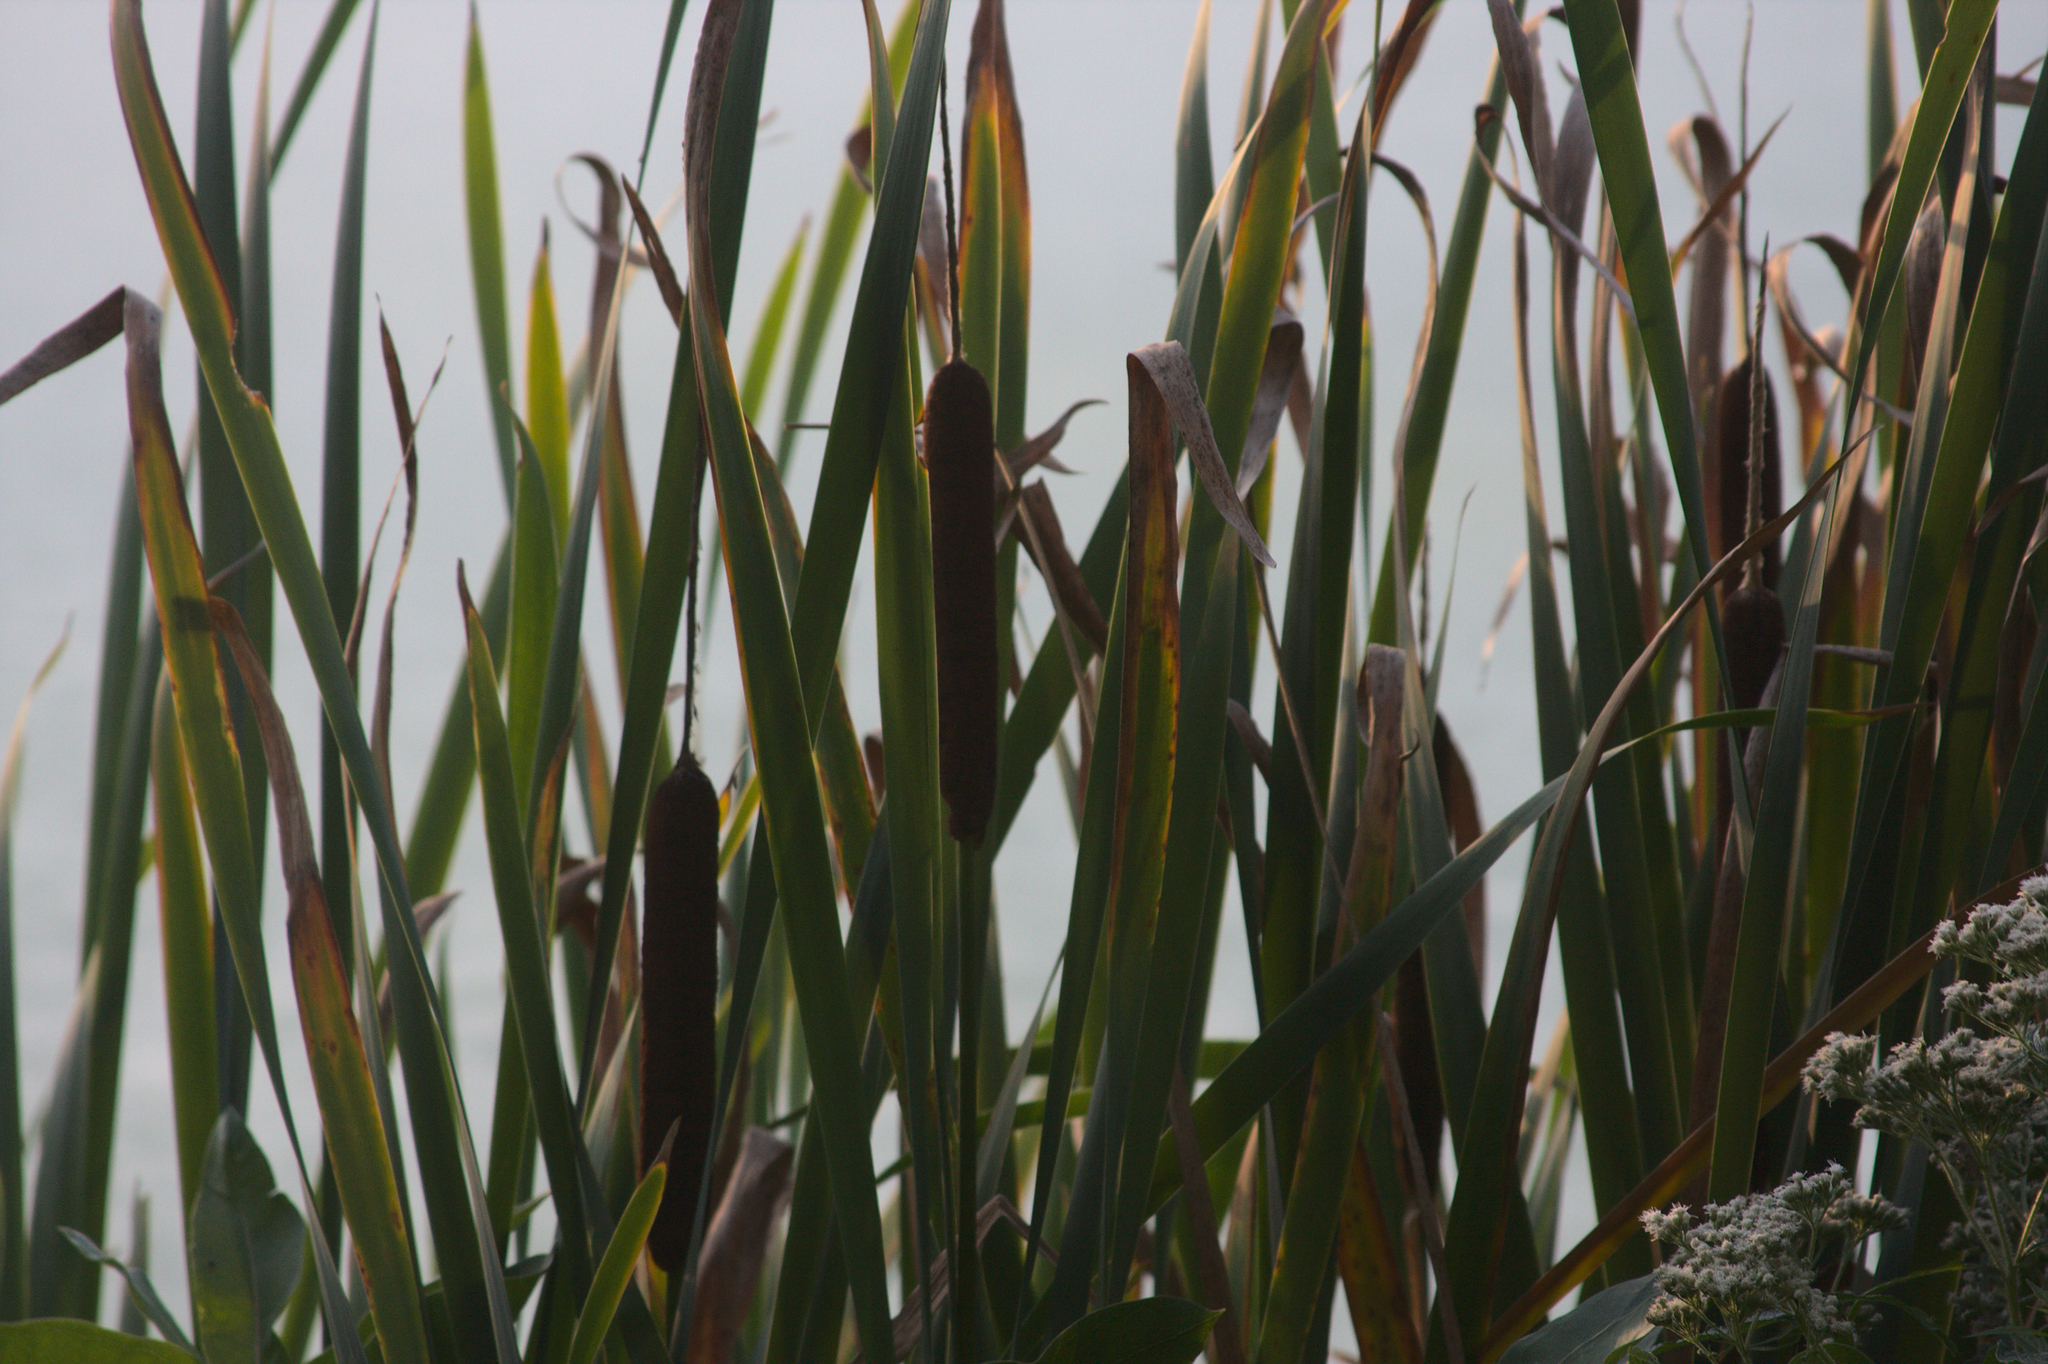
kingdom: Plantae
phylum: Tracheophyta
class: Liliopsida
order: Poales
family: Typhaceae
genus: Typha
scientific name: Typha latifolia
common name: Broadleaf cattail
